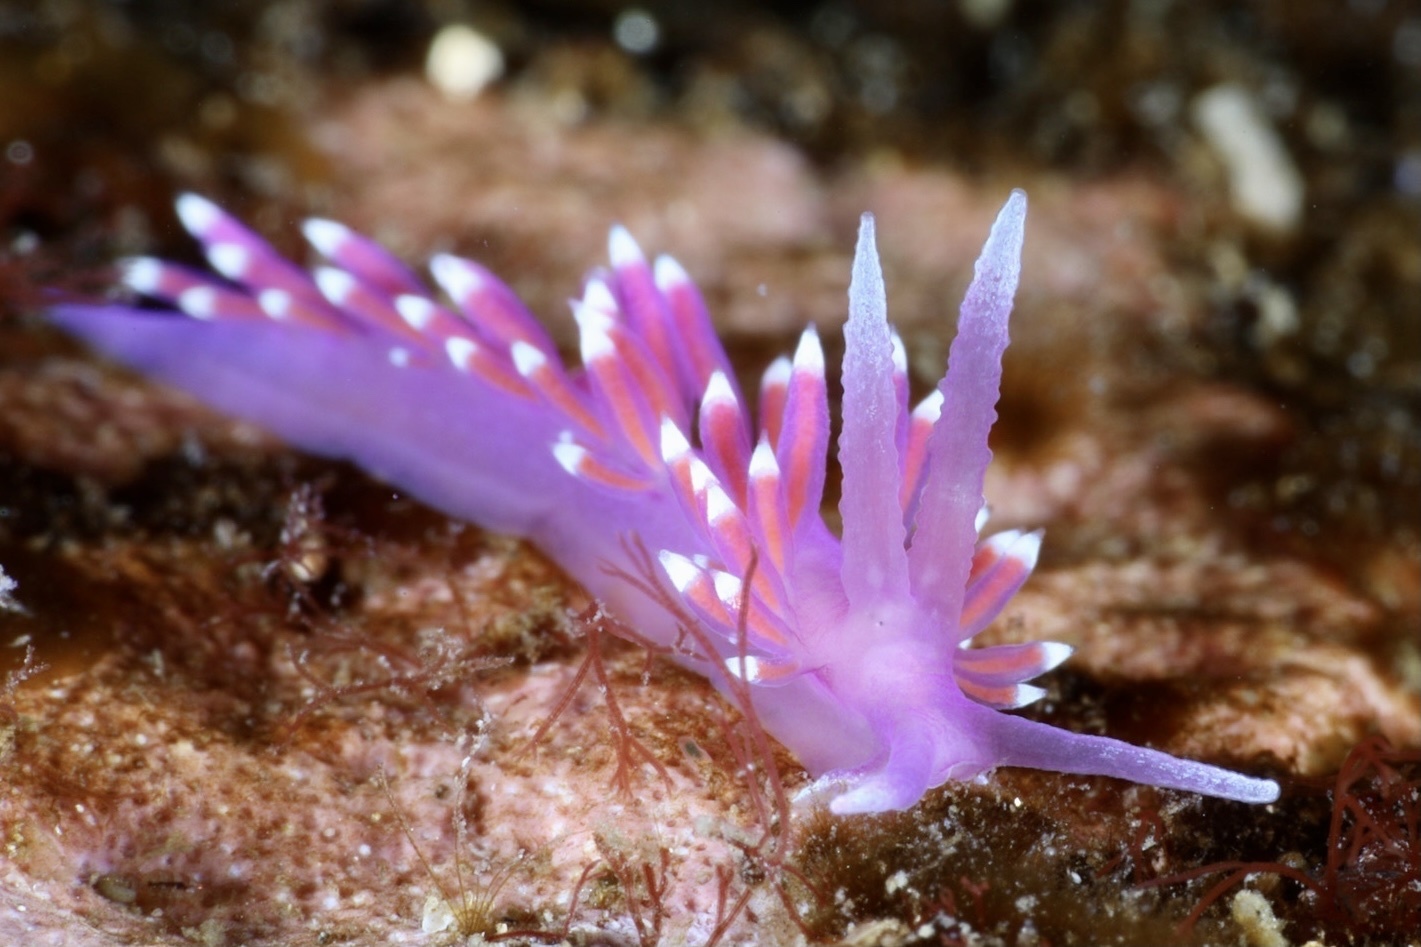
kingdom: Animalia
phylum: Mollusca
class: Gastropoda
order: Nudibranchia
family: Flabellinidae
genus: Edmundsella
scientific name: Edmundsella pedata
